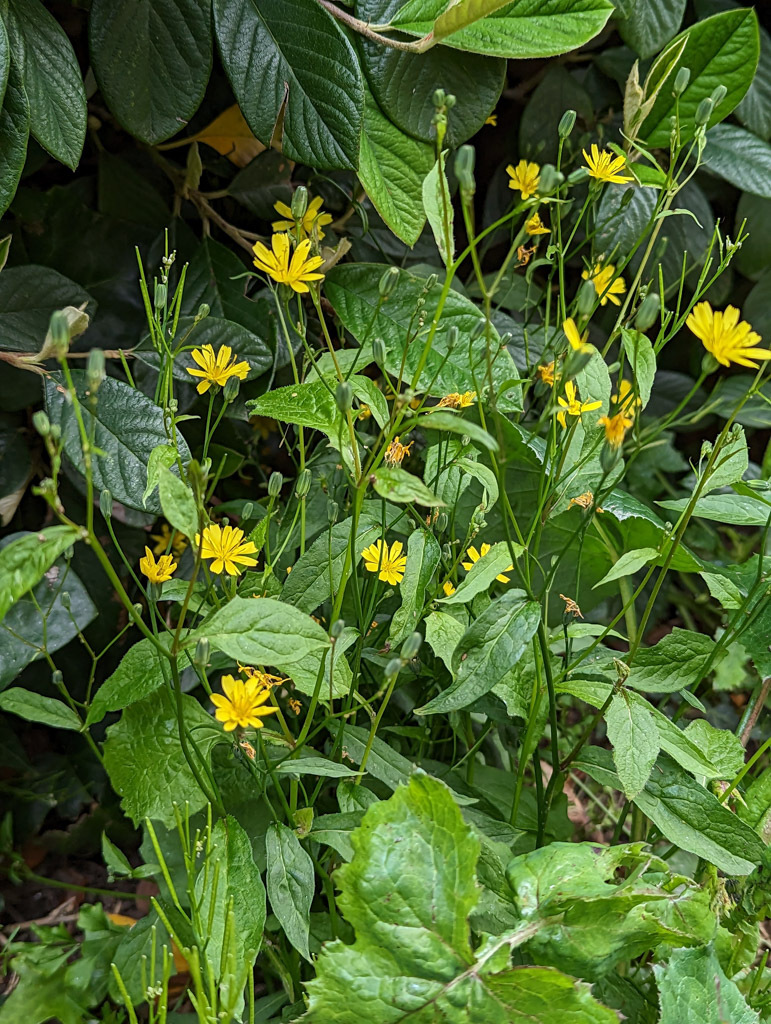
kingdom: Plantae
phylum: Tracheophyta
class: Magnoliopsida
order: Asterales
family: Asteraceae
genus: Lapsana
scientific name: Lapsana communis
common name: Nipplewort
